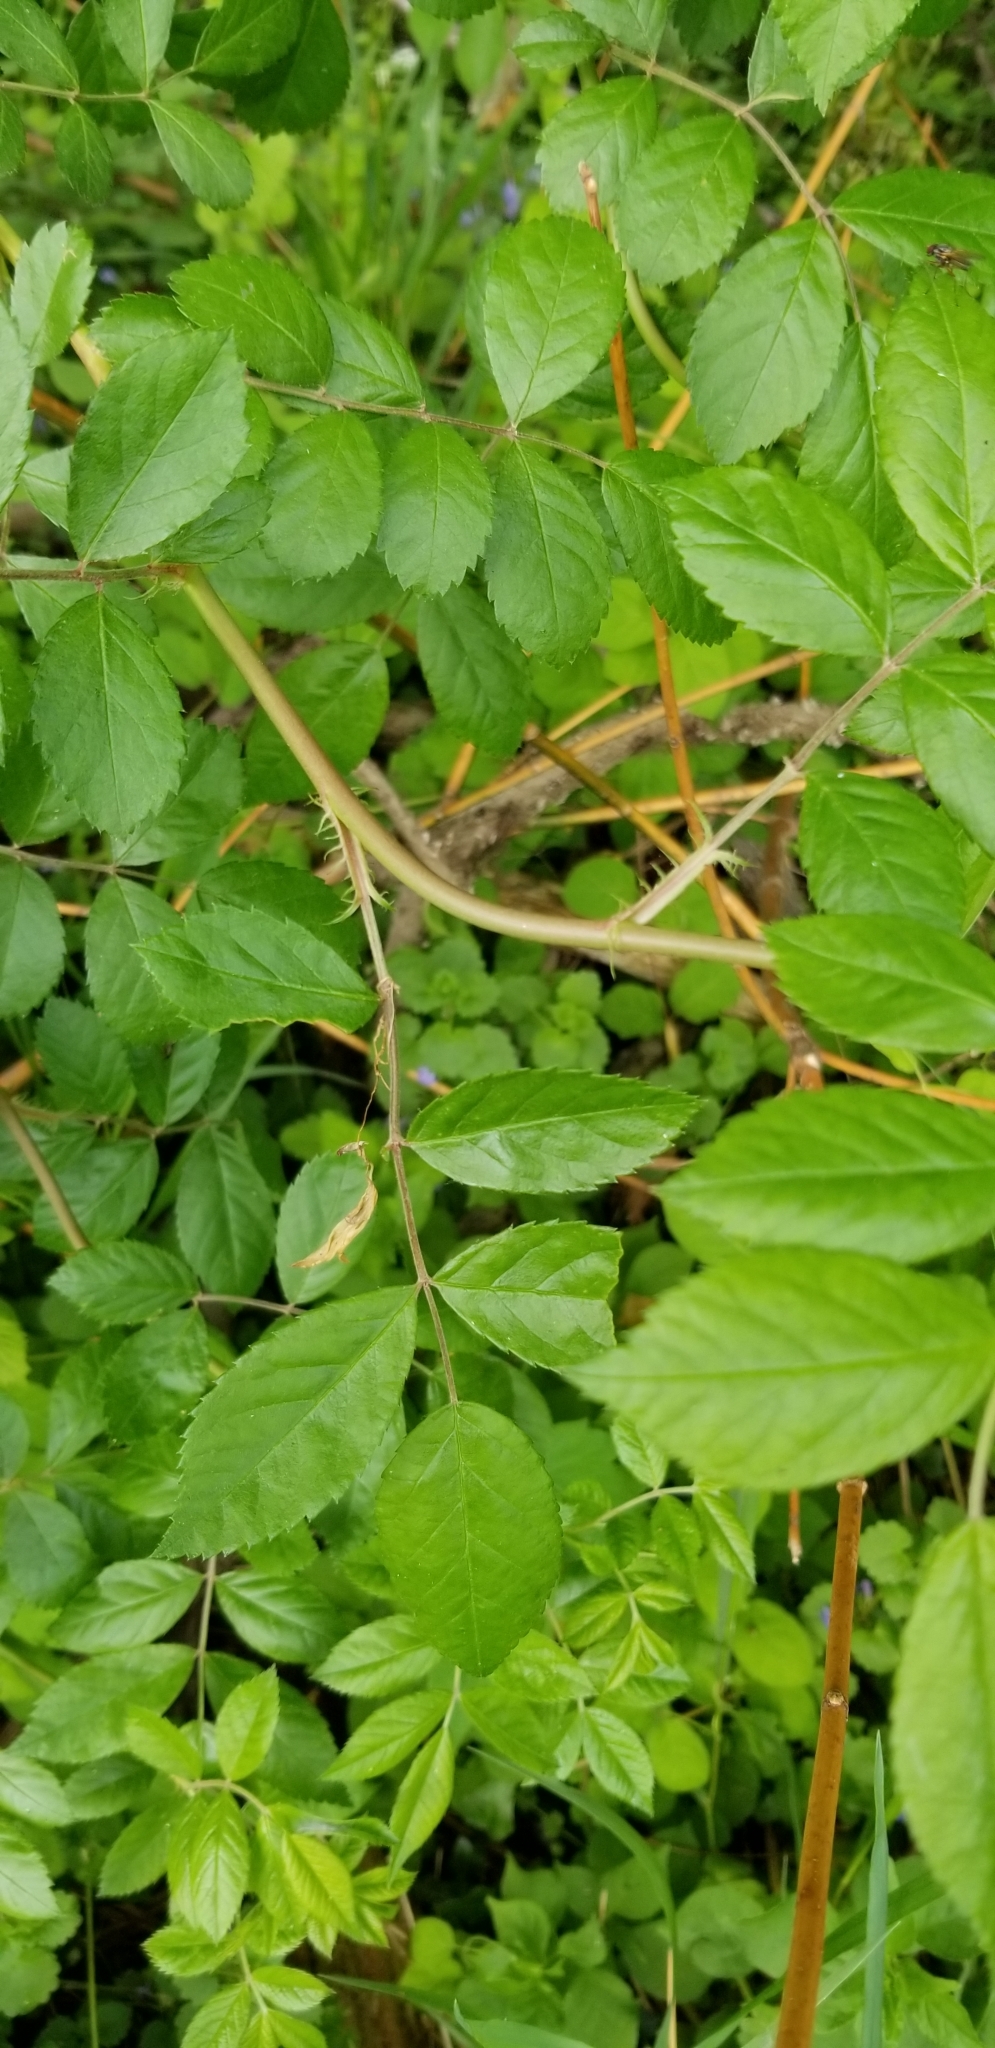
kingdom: Plantae
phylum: Tracheophyta
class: Magnoliopsida
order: Rosales
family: Rosaceae
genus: Rosa
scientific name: Rosa multiflora
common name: Multiflora rose
